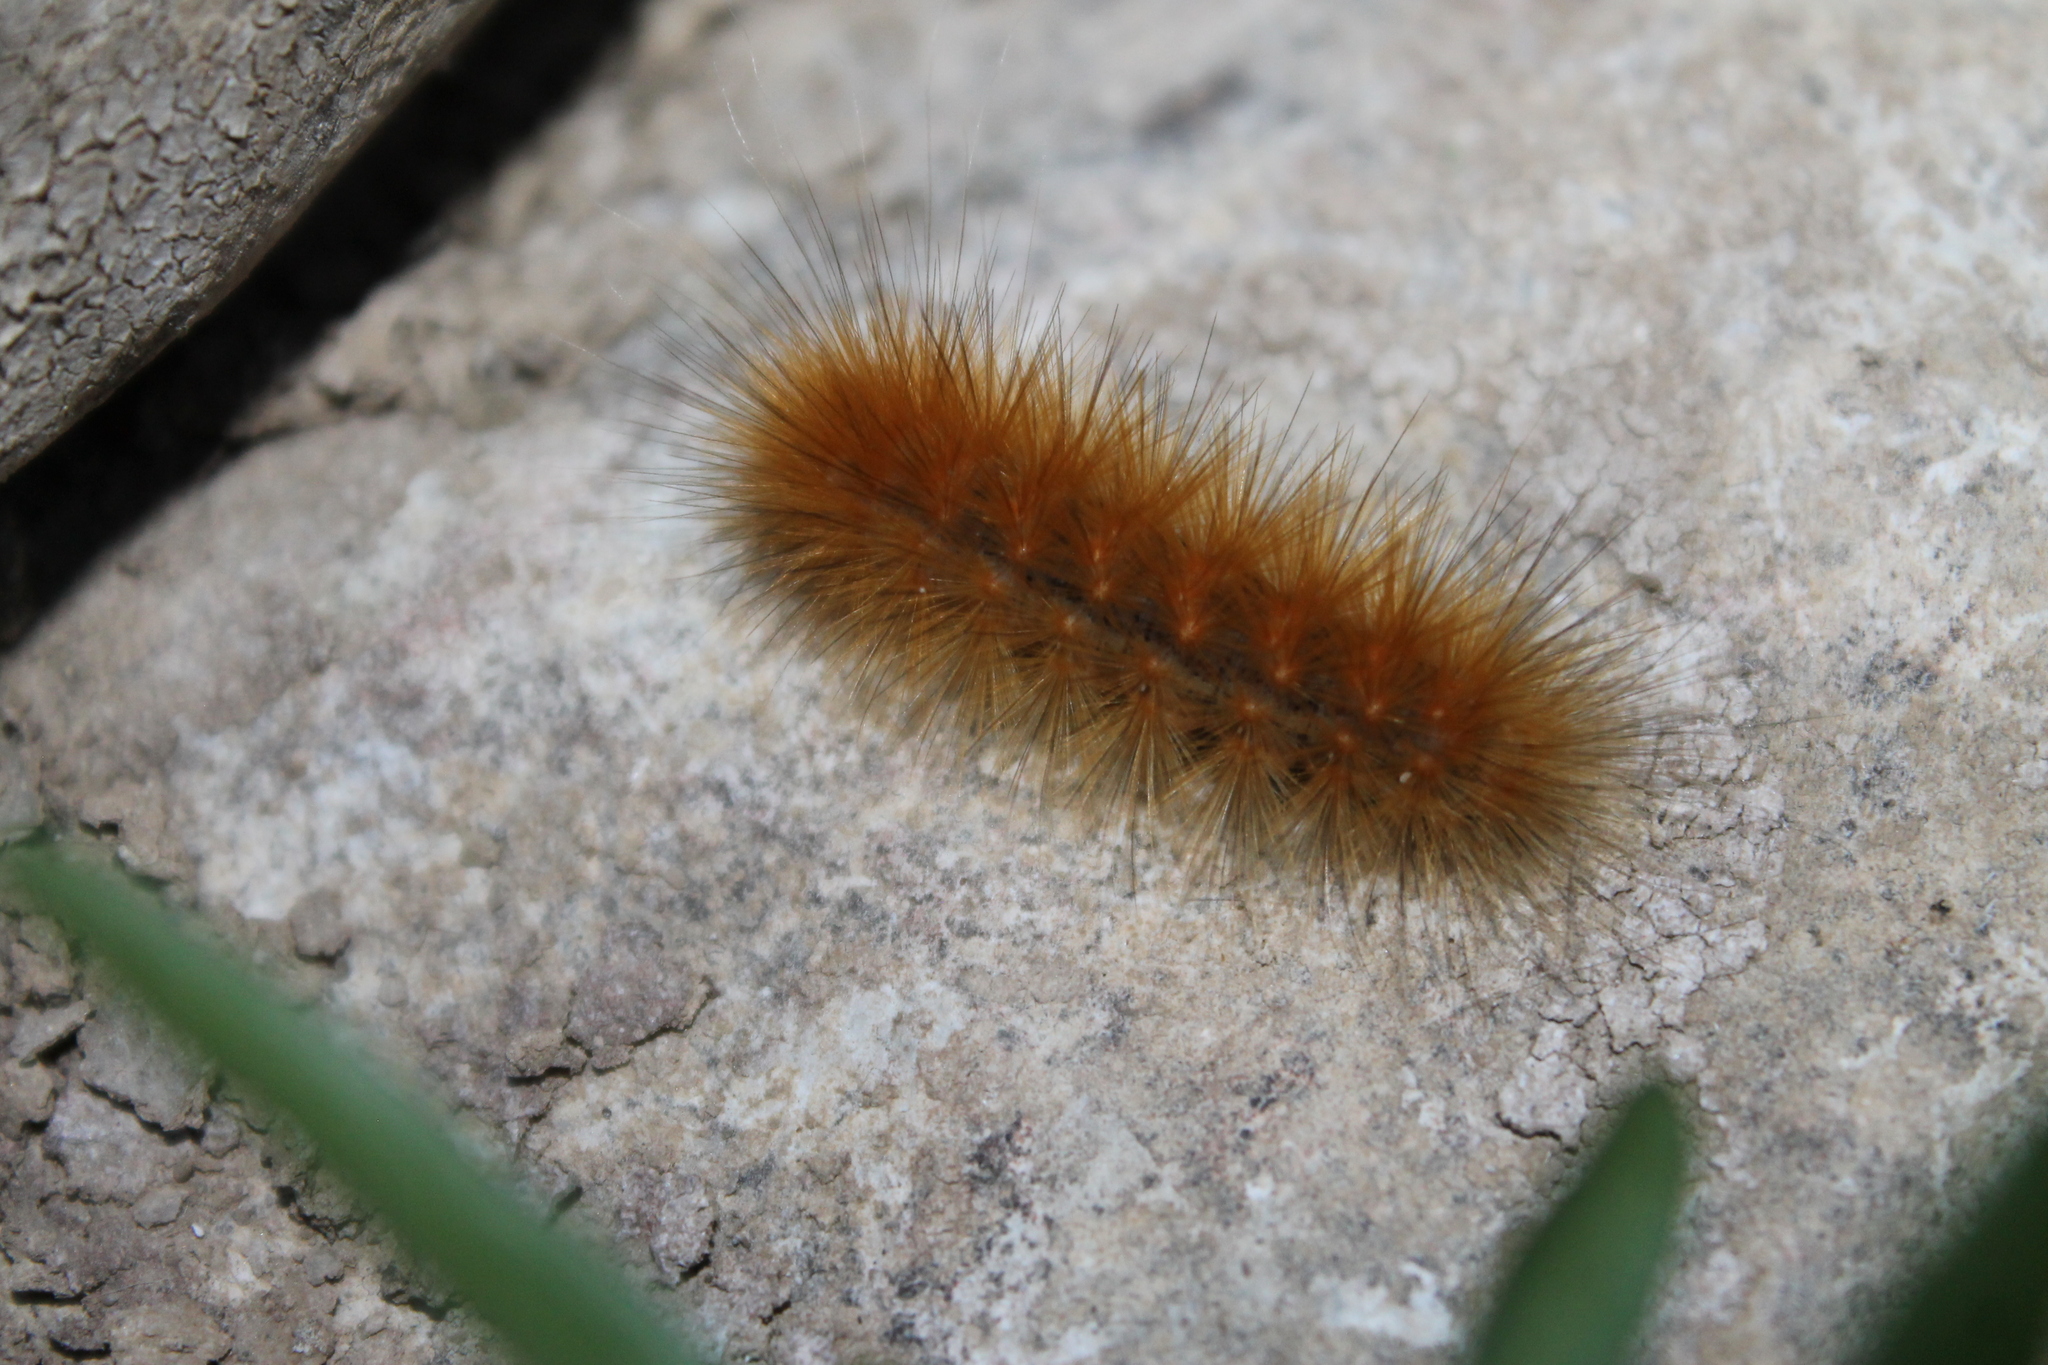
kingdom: Animalia
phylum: Arthropoda
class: Insecta
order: Lepidoptera
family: Erebidae
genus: Spilosoma
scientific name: Spilosoma virginica
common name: Virginia tiger moth
